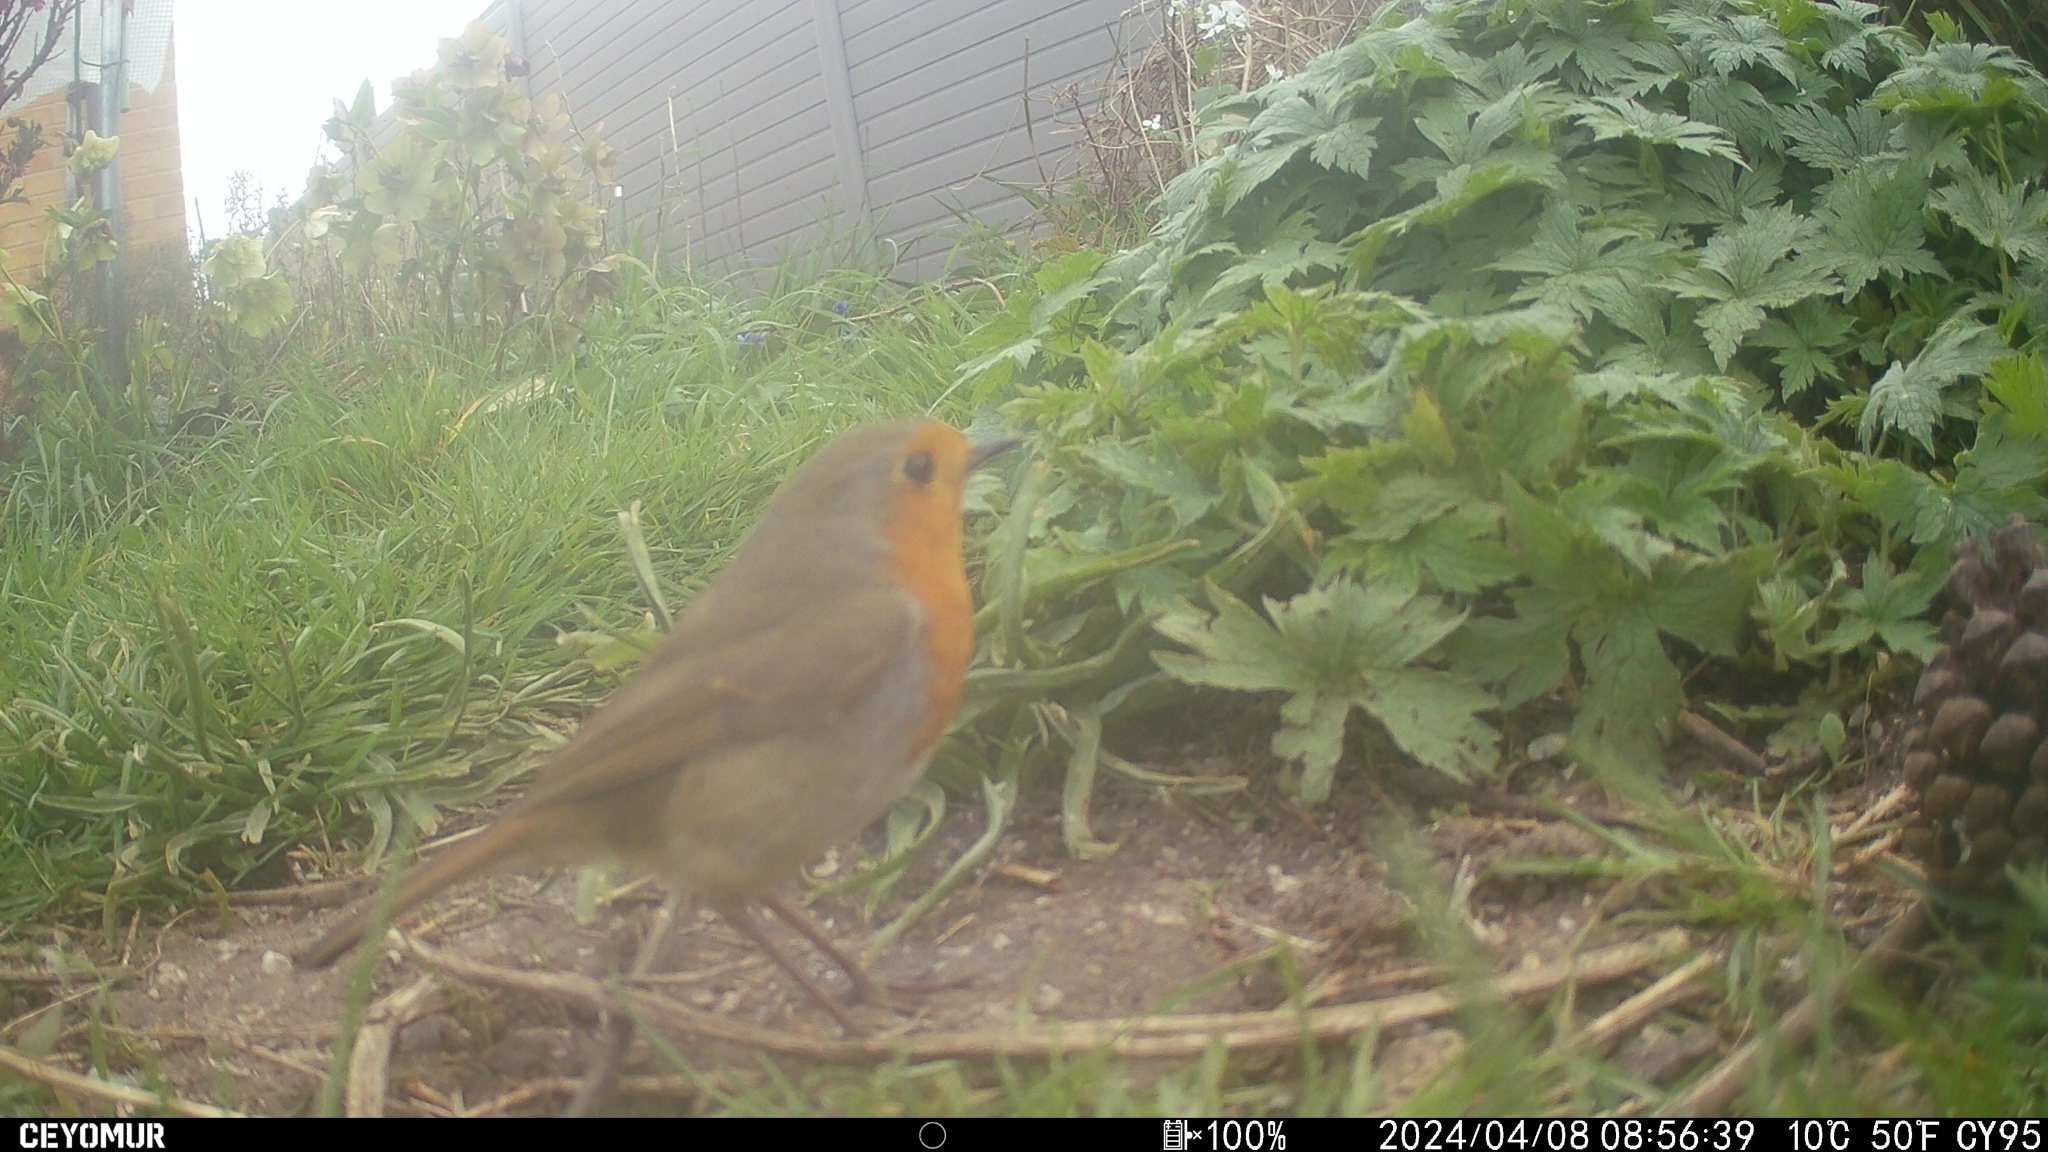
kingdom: Animalia
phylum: Chordata
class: Aves
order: Passeriformes
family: Muscicapidae
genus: Erithacus
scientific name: Erithacus rubecula
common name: European robin
